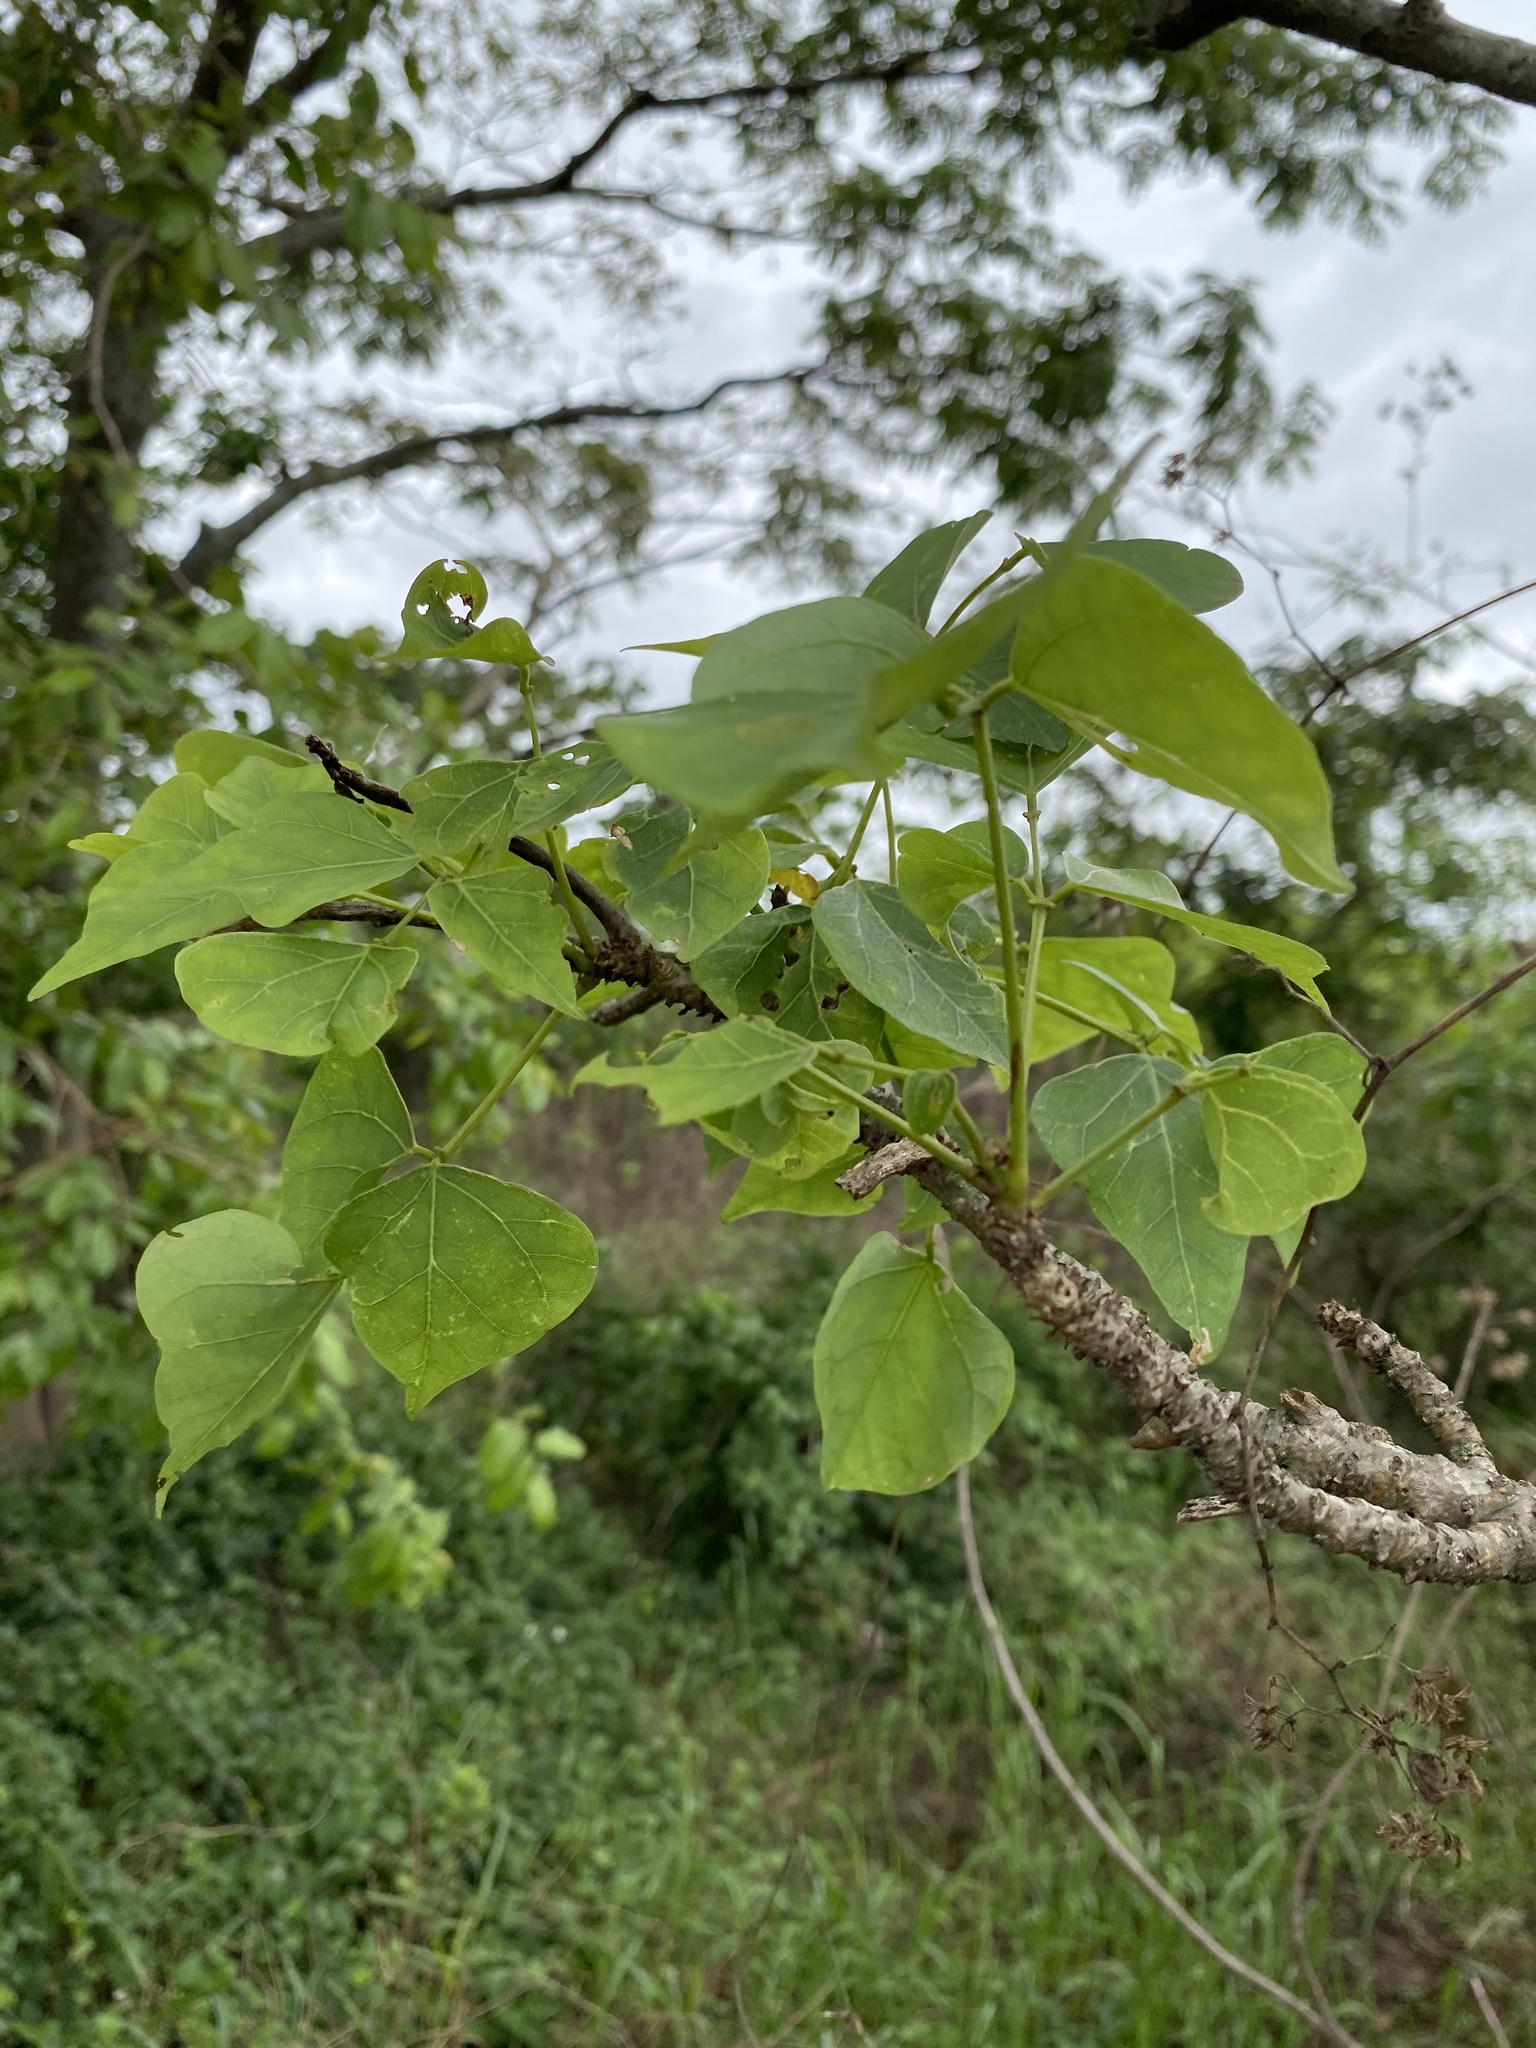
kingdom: Plantae
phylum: Tracheophyta
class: Magnoliopsida
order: Fabales
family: Fabaceae
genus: Erythrina
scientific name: Erythrina lysistemon
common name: Common coral tree
